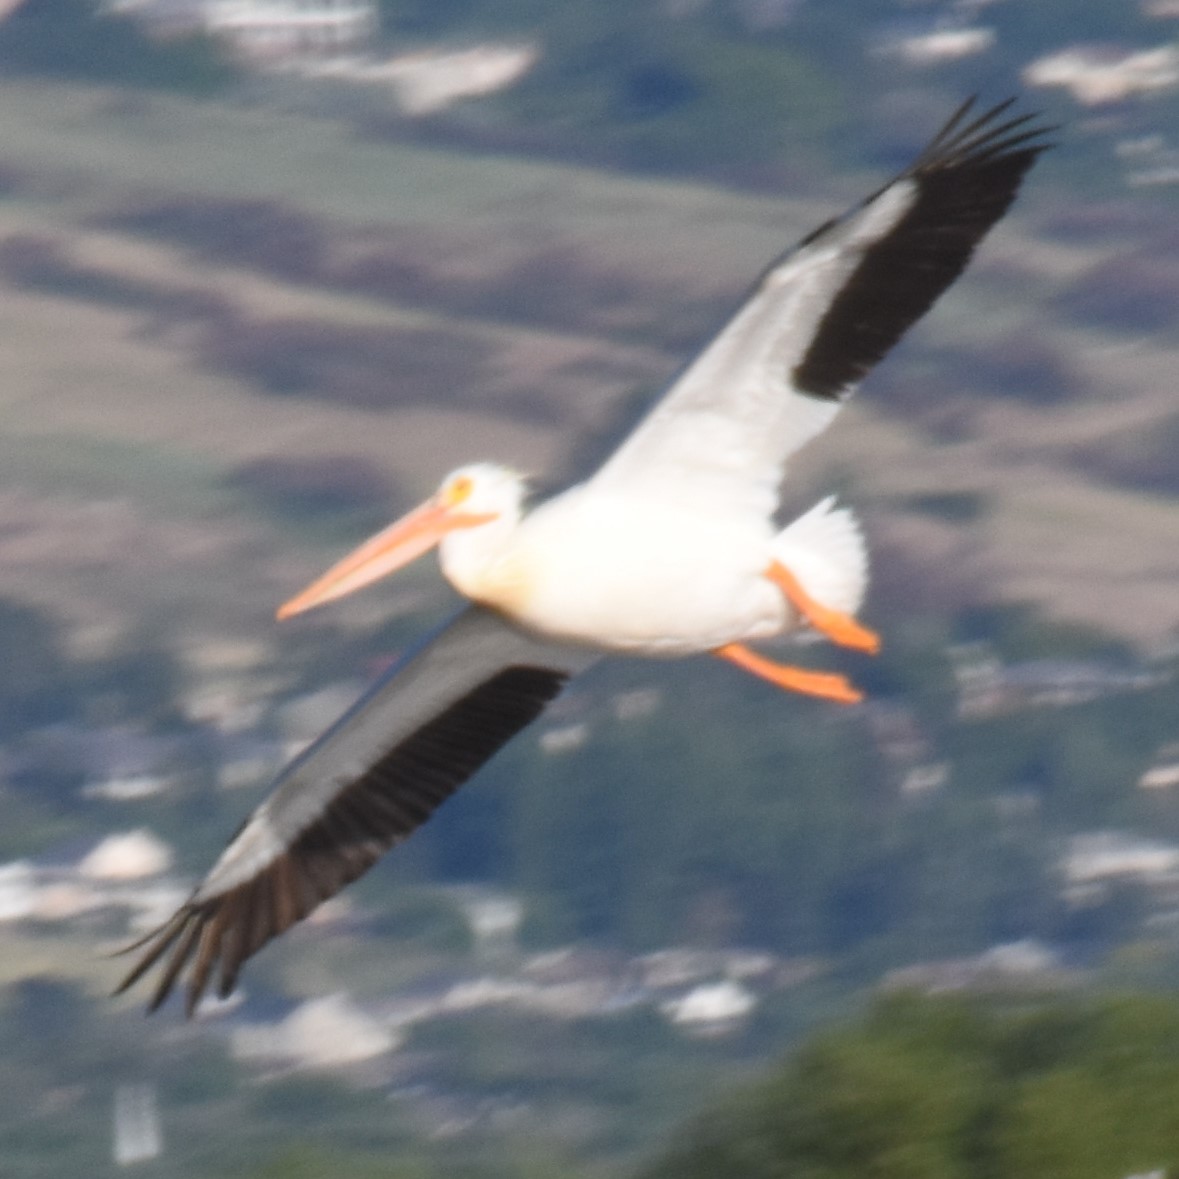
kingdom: Animalia
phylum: Chordata
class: Aves
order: Pelecaniformes
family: Pelecanidae
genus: Pelecanus
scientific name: Pelecanus erythrorhynchos
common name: American white pelican
